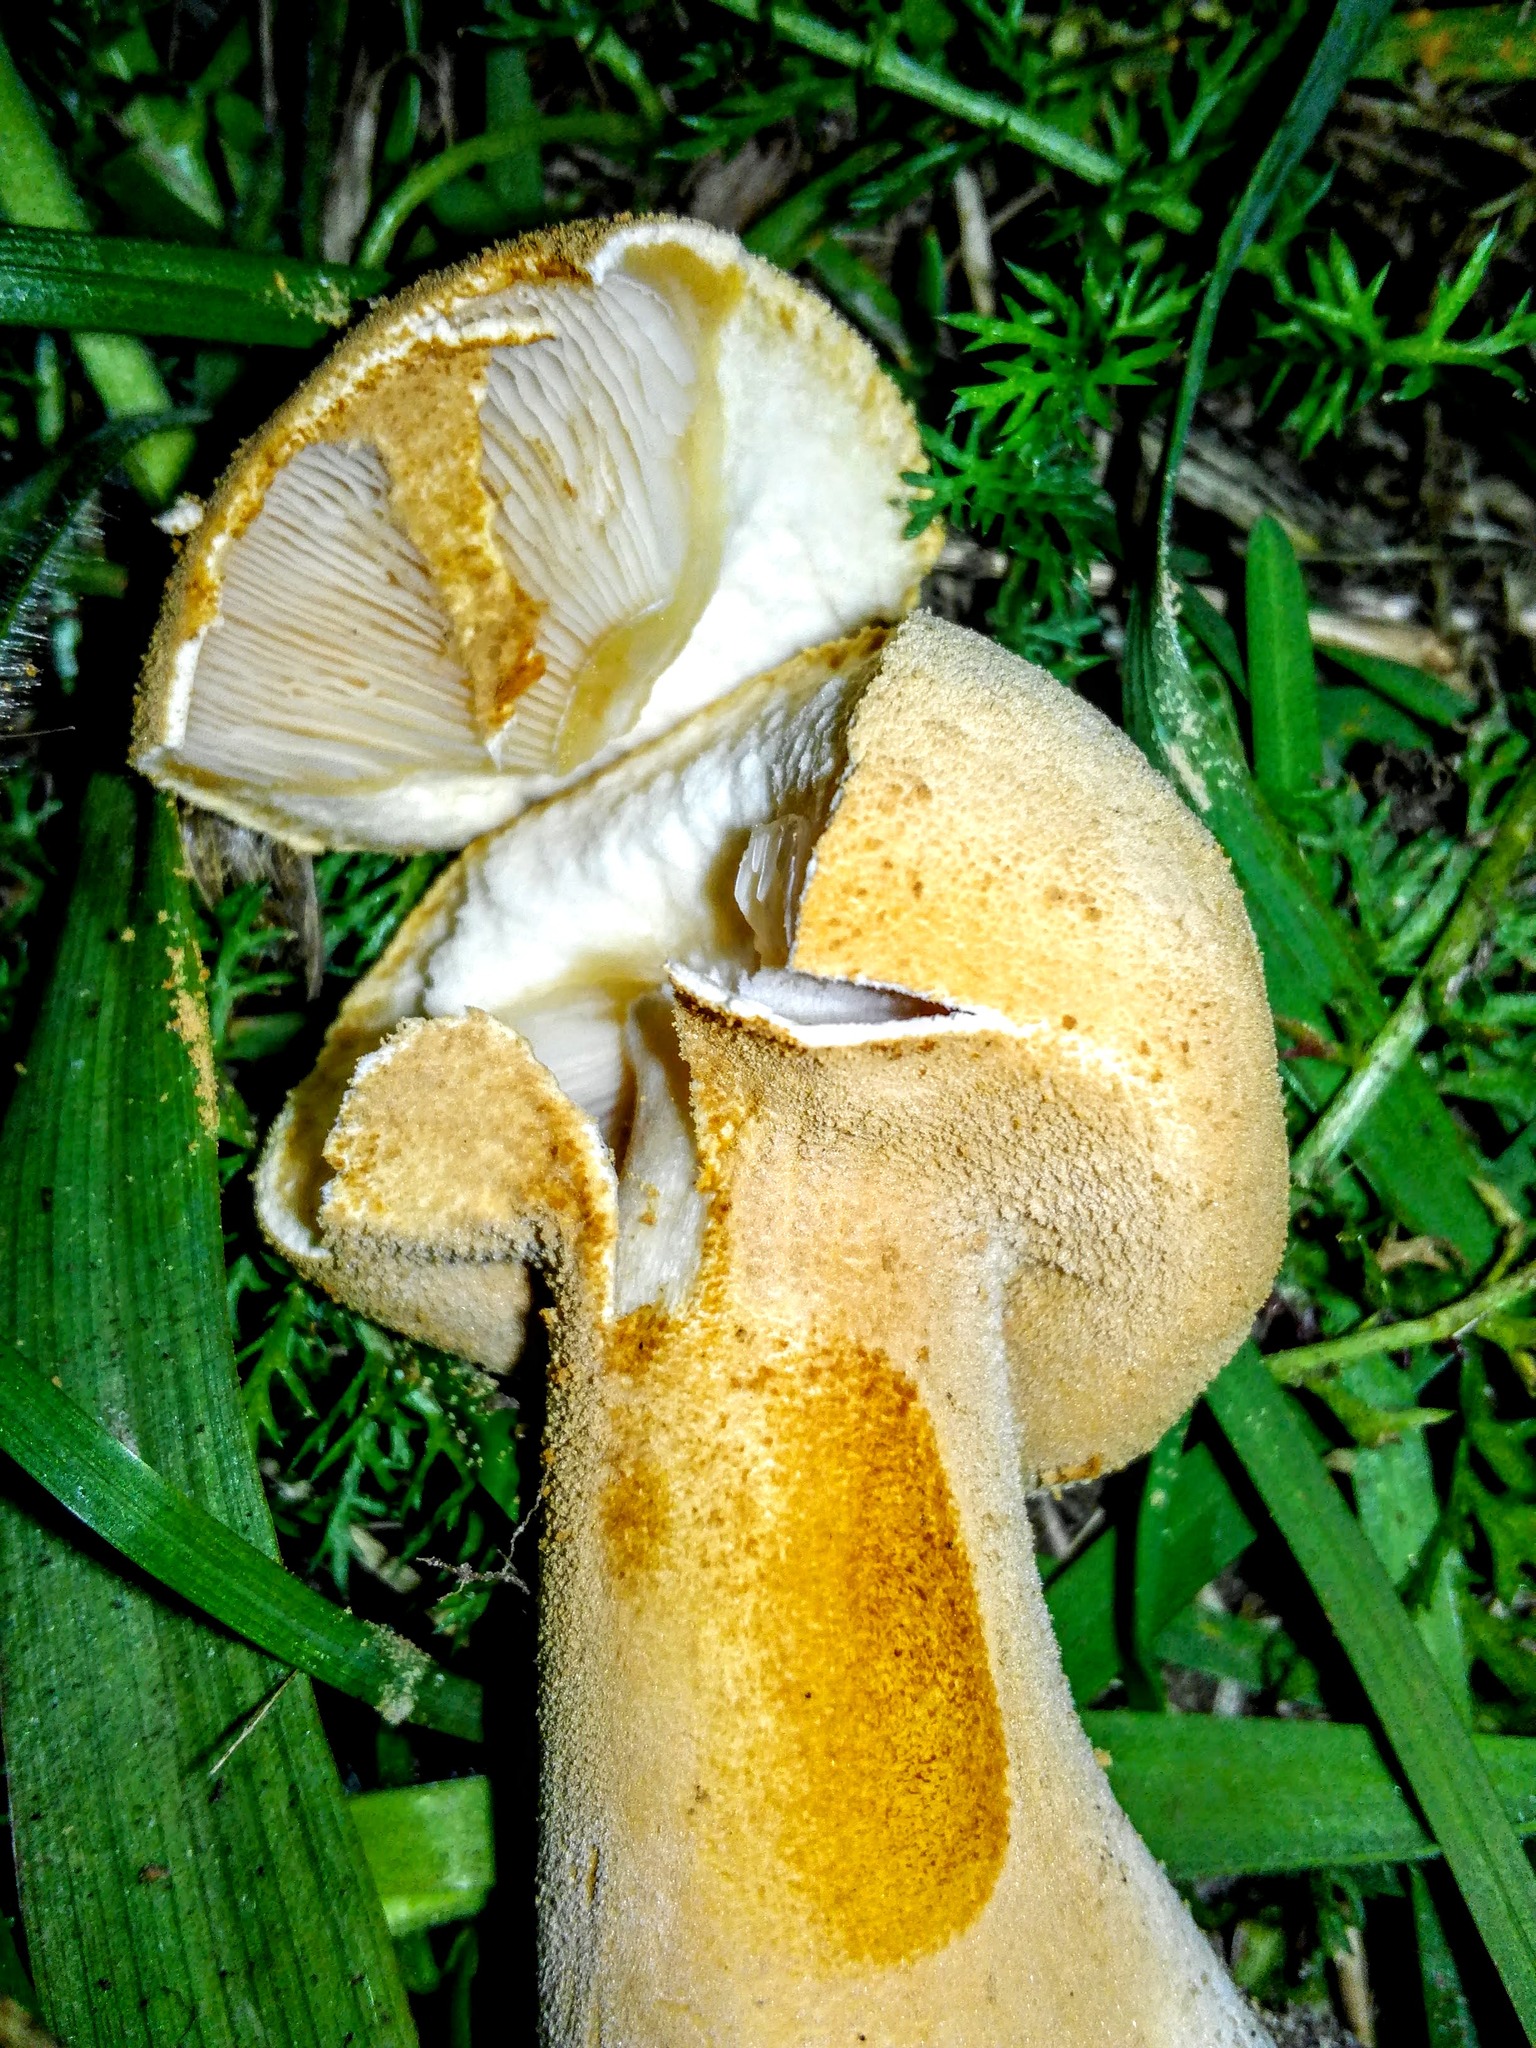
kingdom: Fungi
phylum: Basidiomycota
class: Agaricomycetes
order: Agaricales
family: Tricholomataceae
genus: Phaeolepiota
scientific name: Phaeolepiota aurea
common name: Golden bootleg
